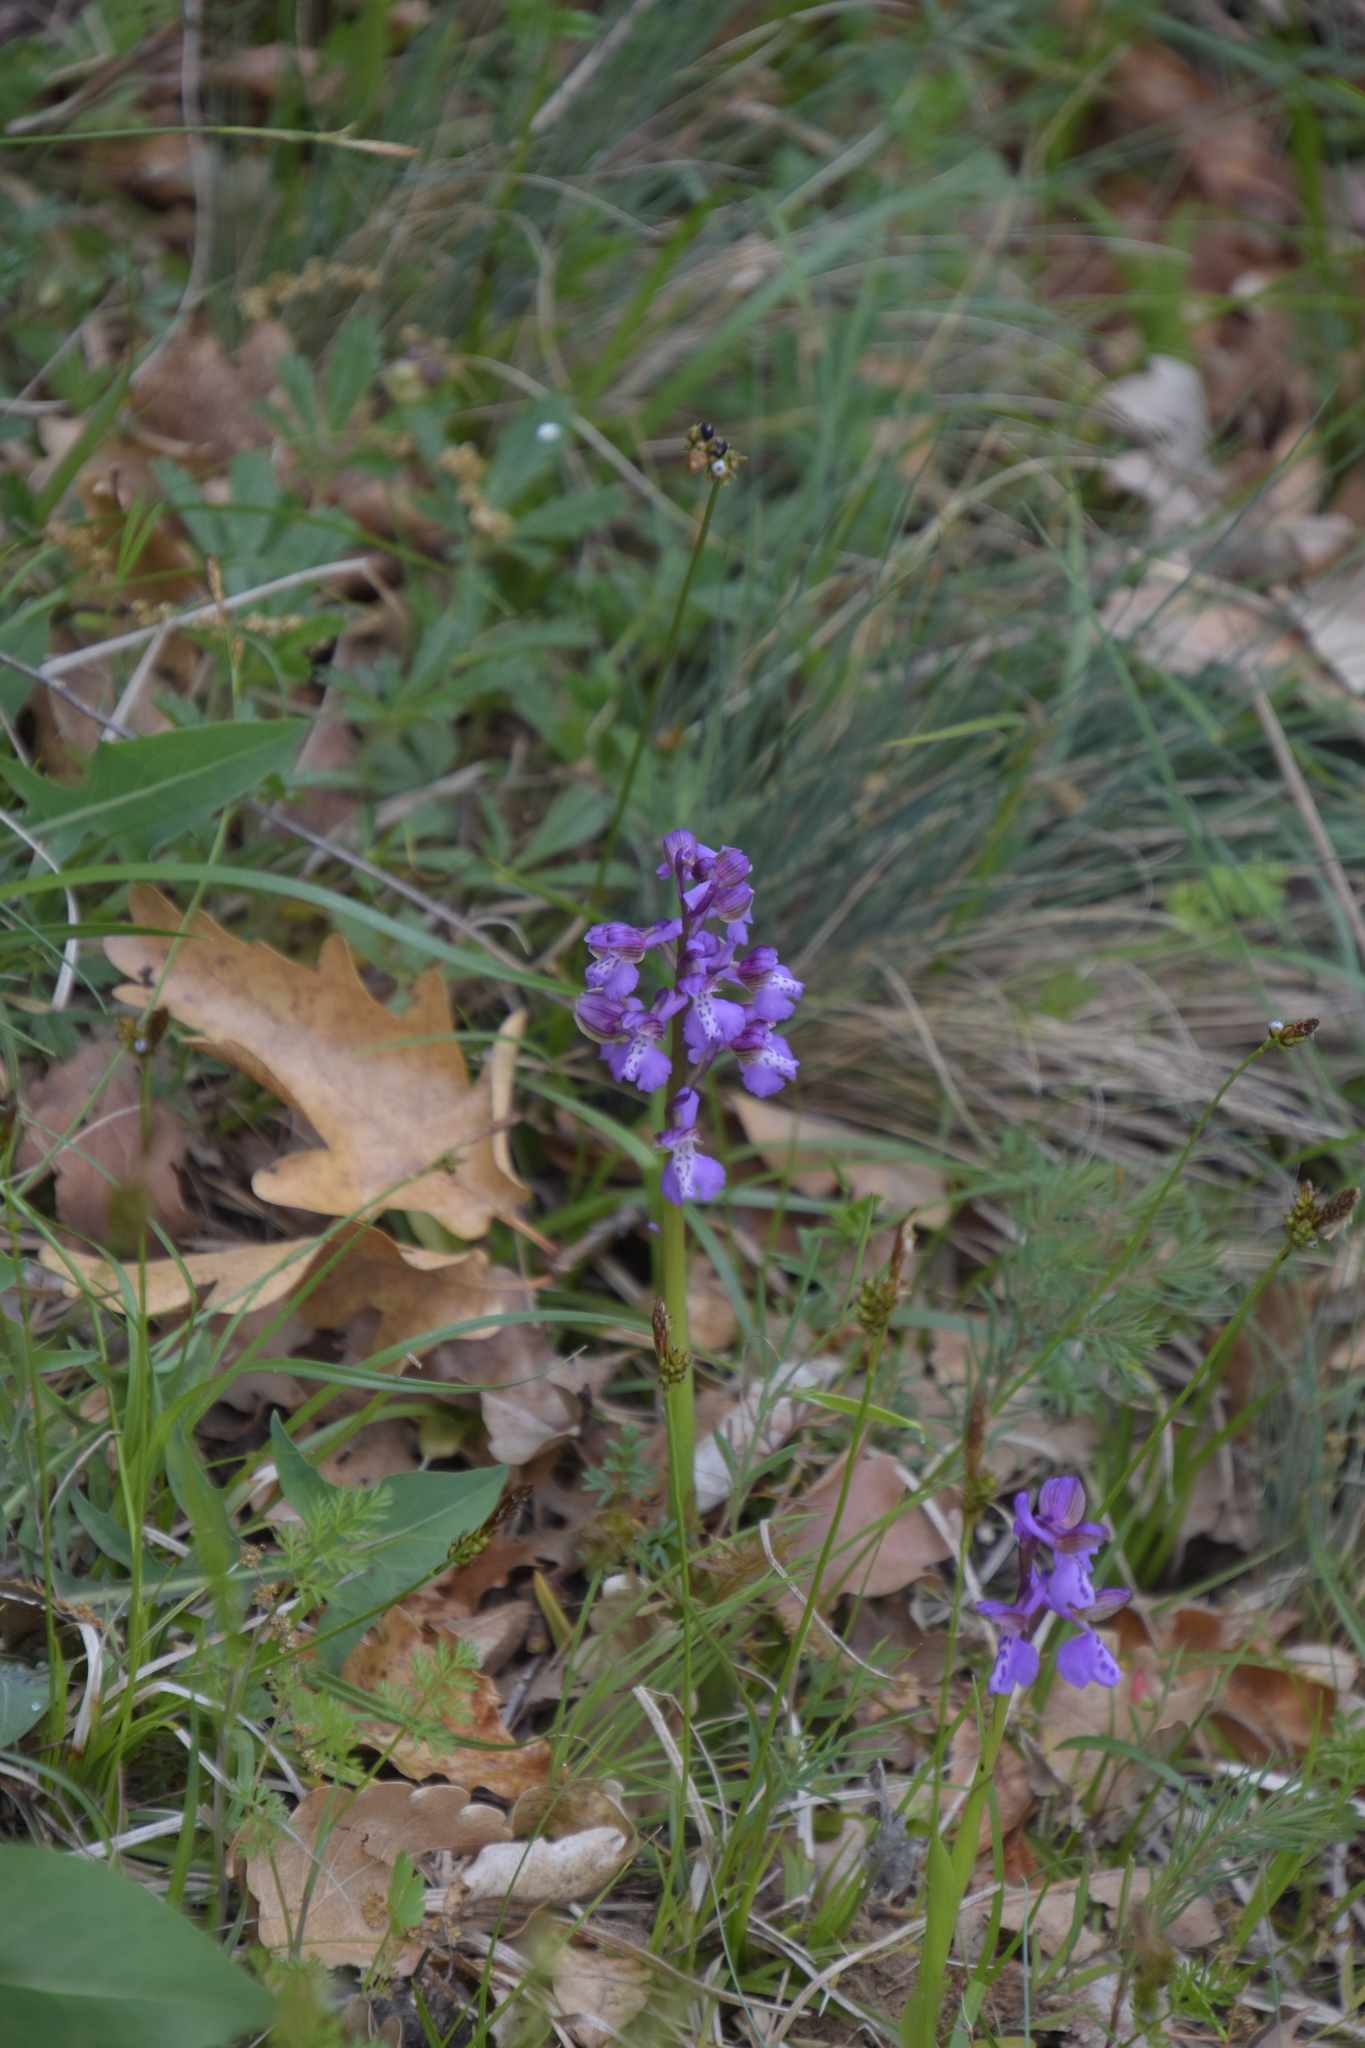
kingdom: Plantae
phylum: Tracheophyta
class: Liliopsida
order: Asparagales
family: Orchidaceae
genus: Anacamptis
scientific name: Anacamptis morio
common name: Green-winged orchid
